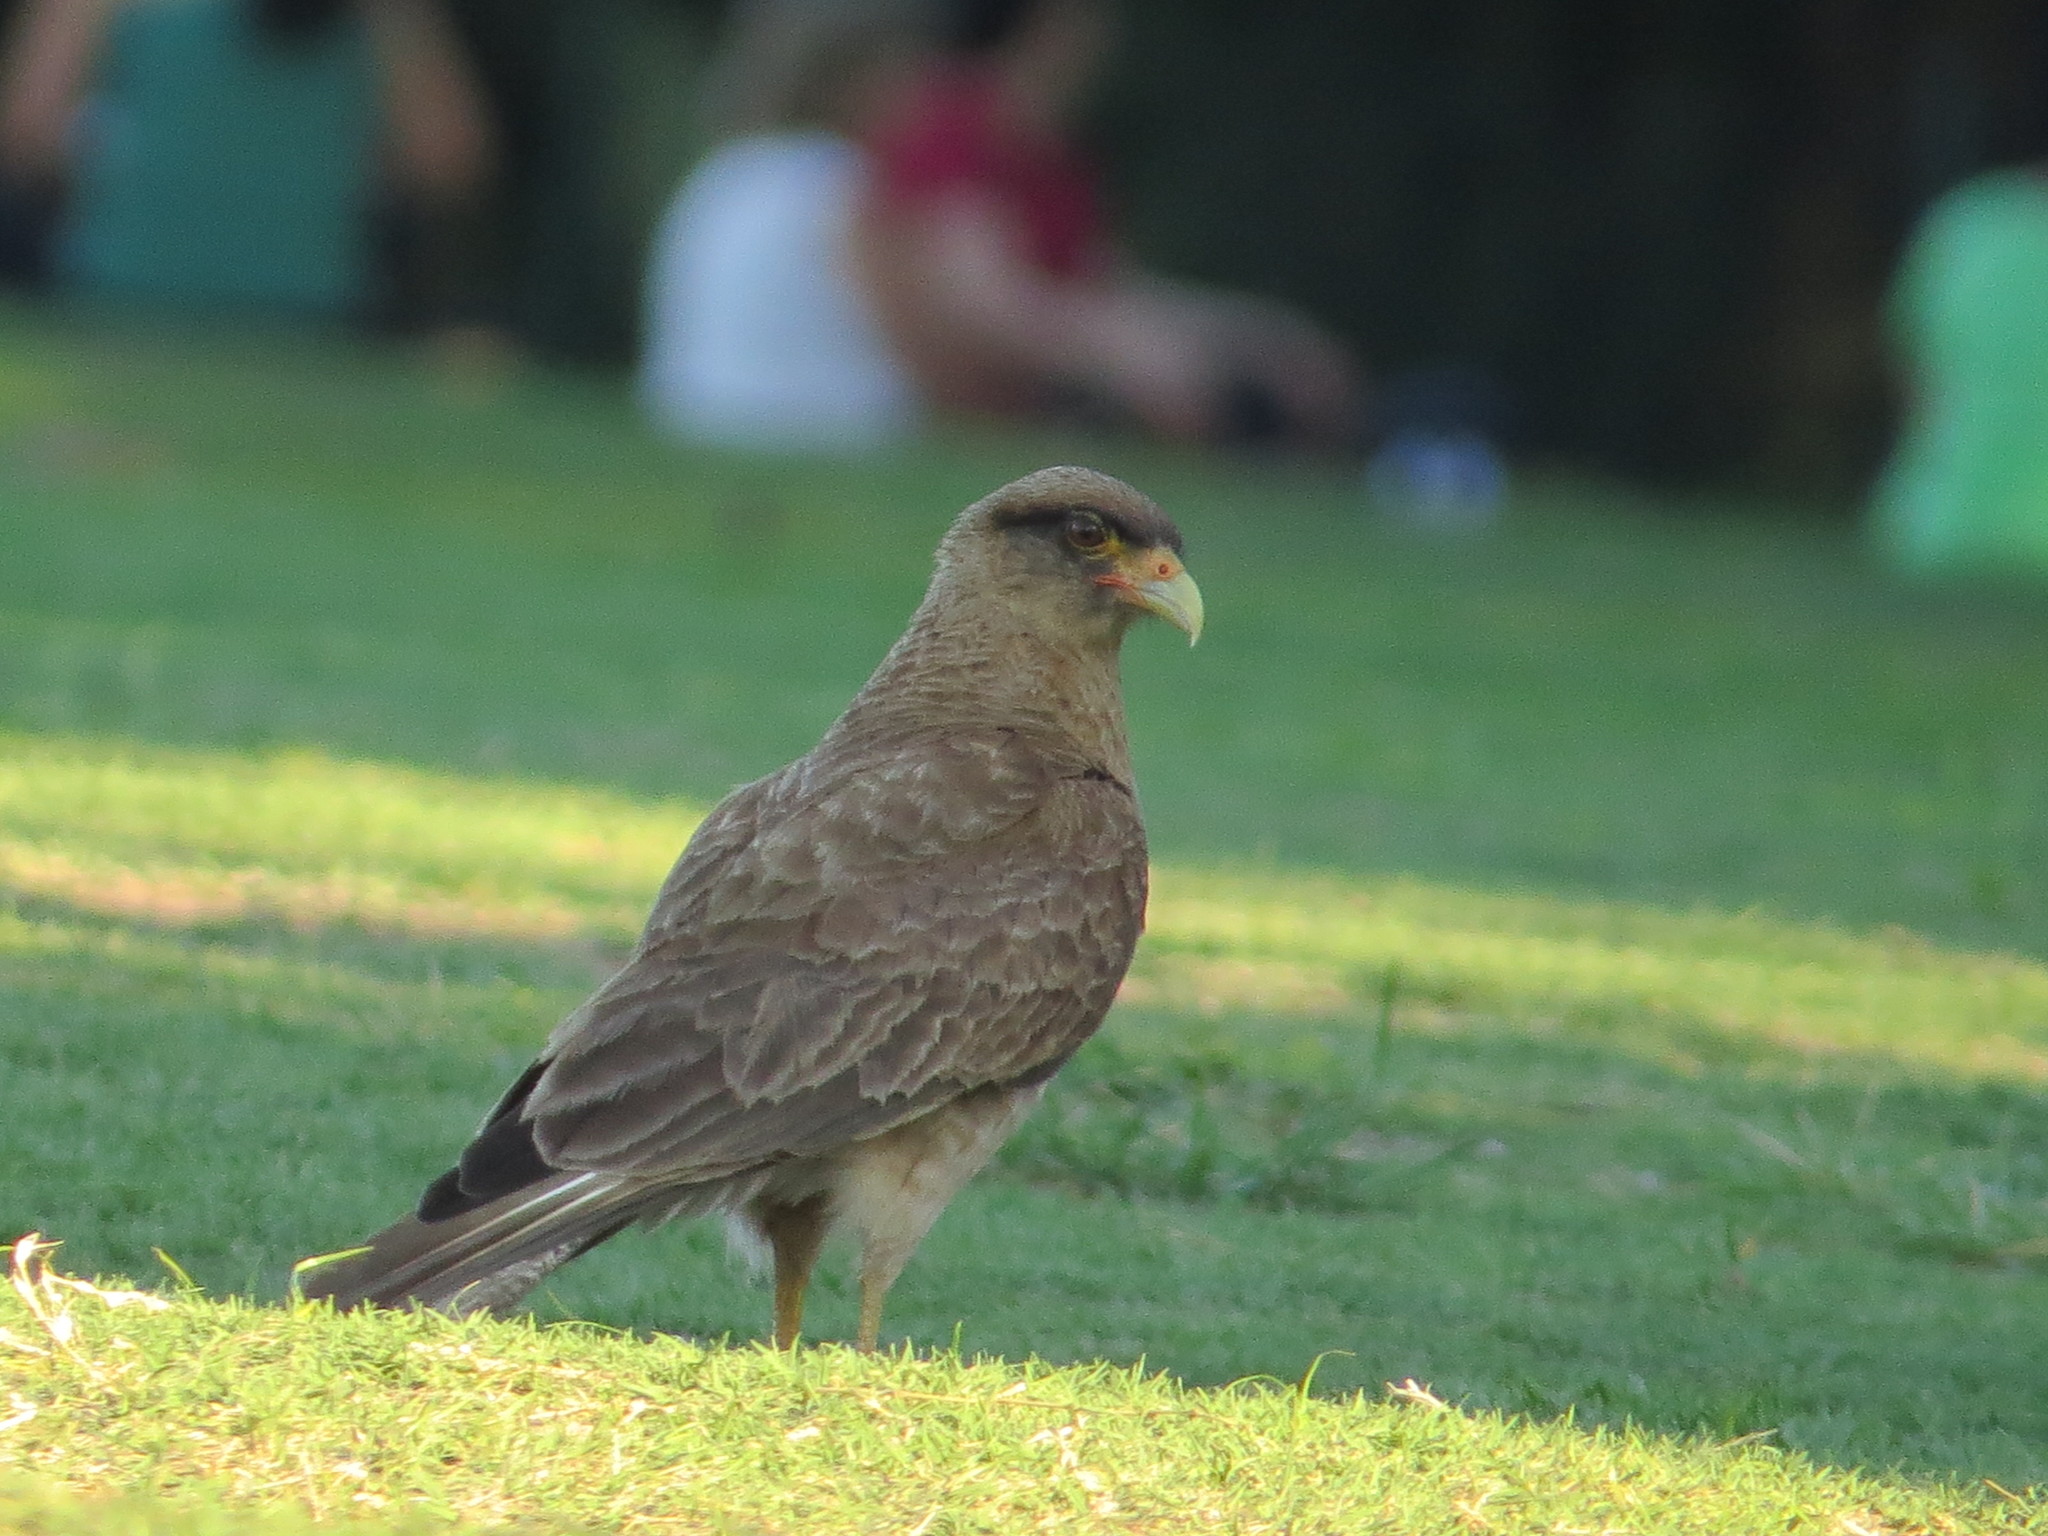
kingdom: Animalia
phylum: Chordata
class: Aves
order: Falconiformes
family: Falconidae
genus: Daptrius
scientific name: Daptrius
